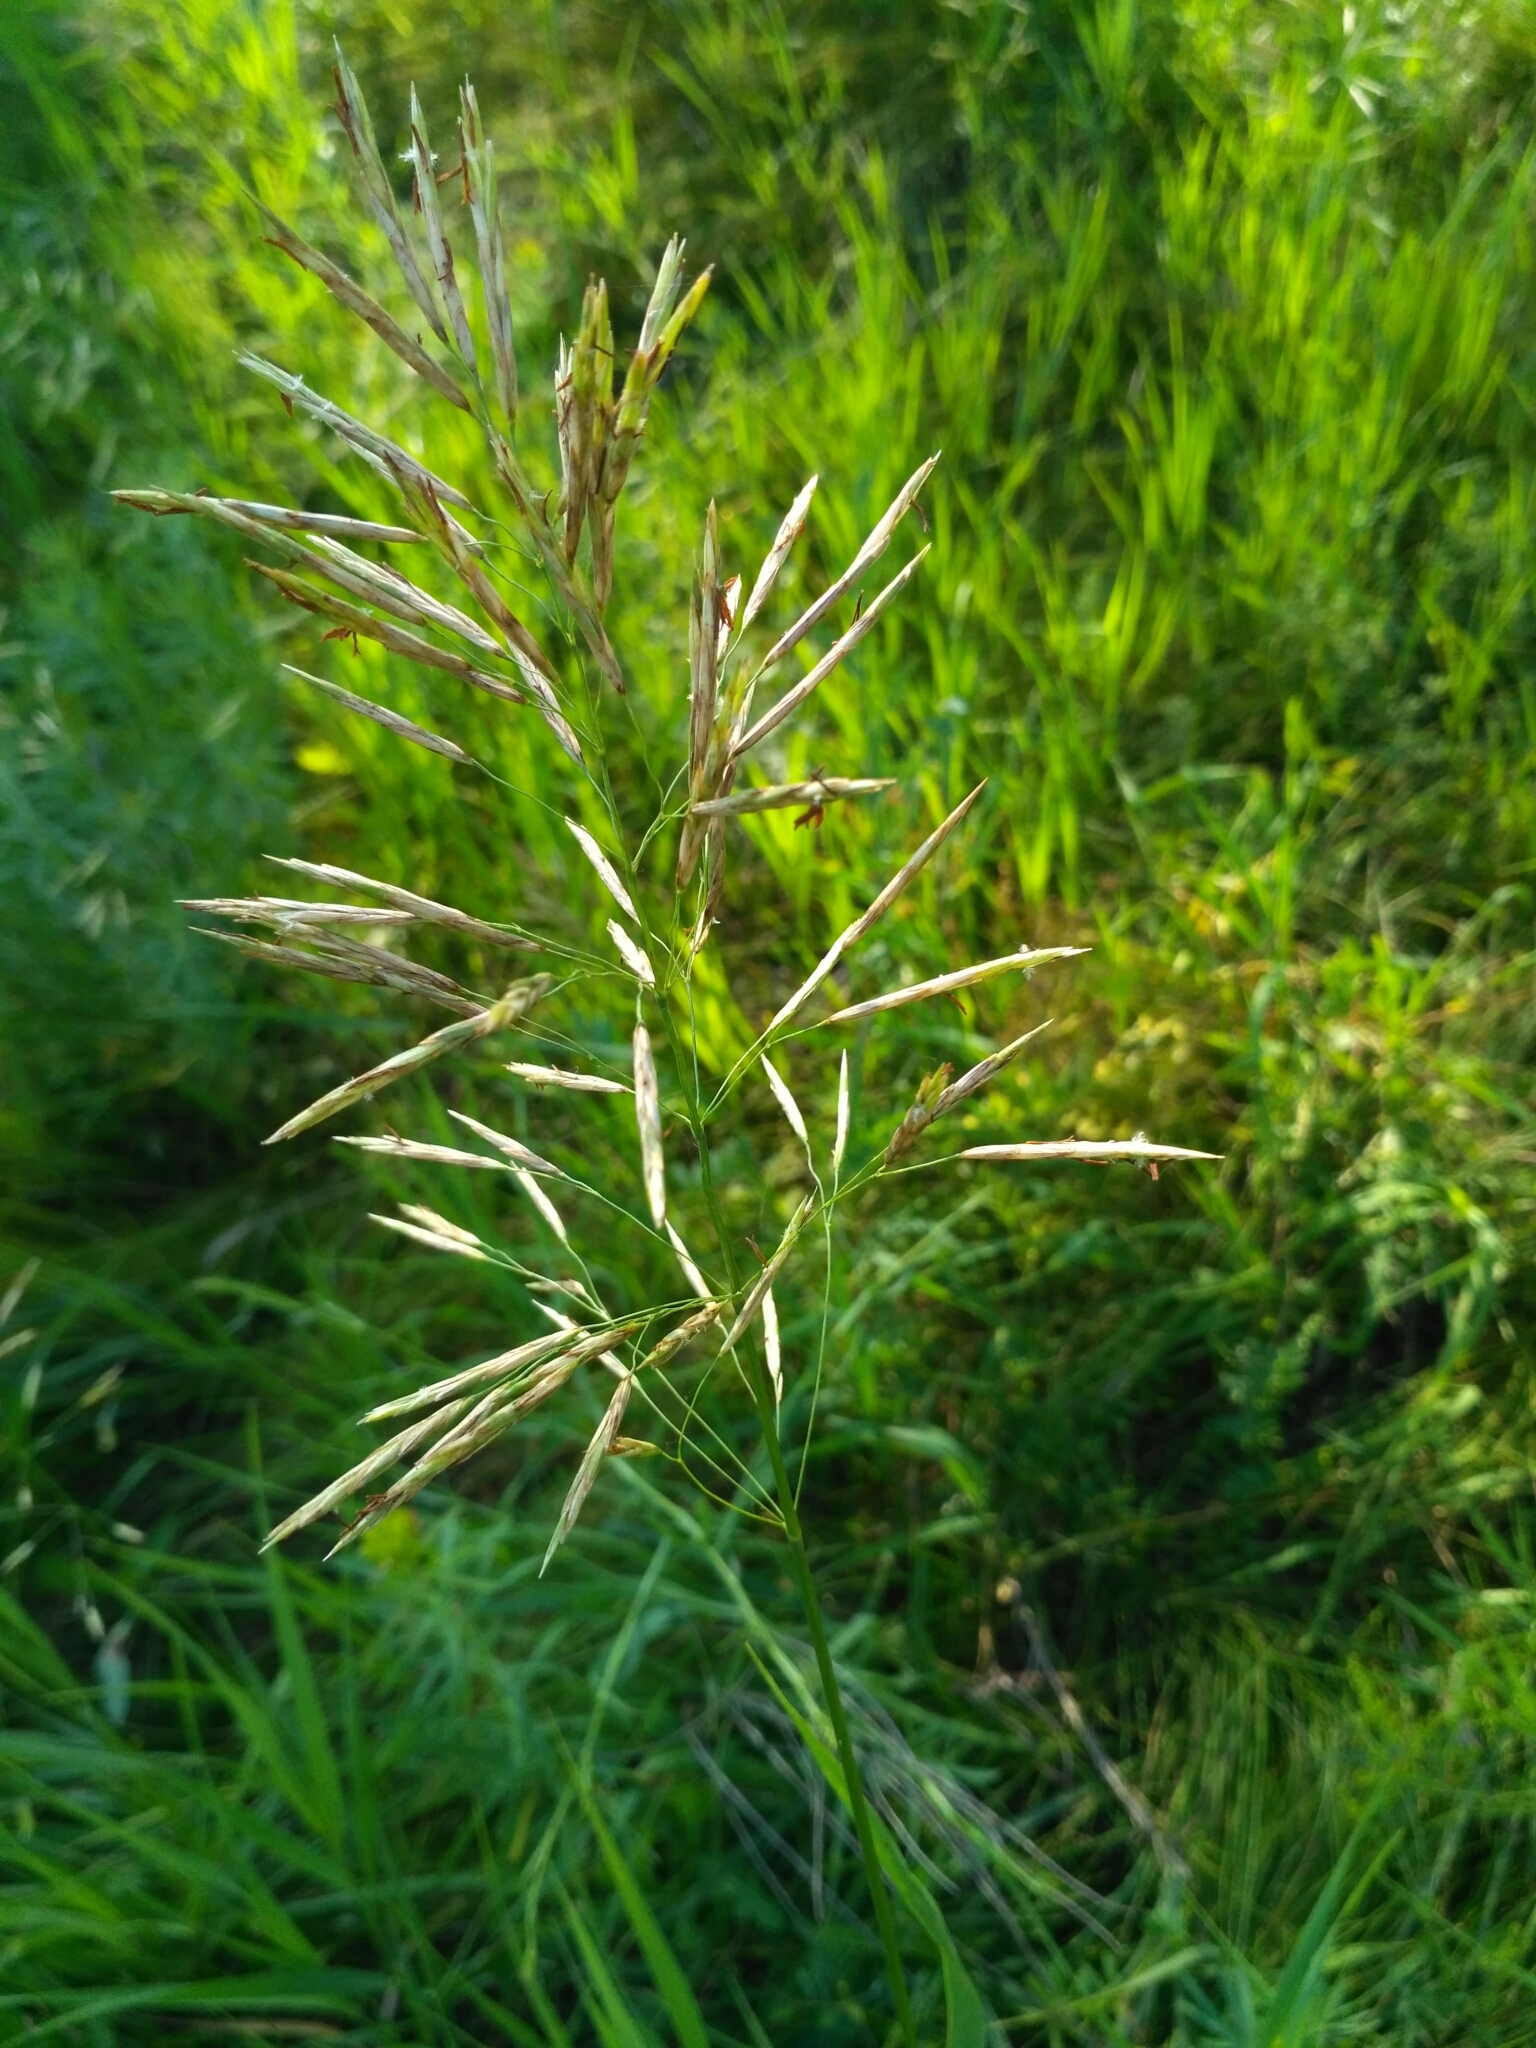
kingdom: Plantae
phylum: Tracheophyta
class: Liliopsida
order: Poales
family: Poaceae
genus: Bromus
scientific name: Bromus inermis
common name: Smooth brome
